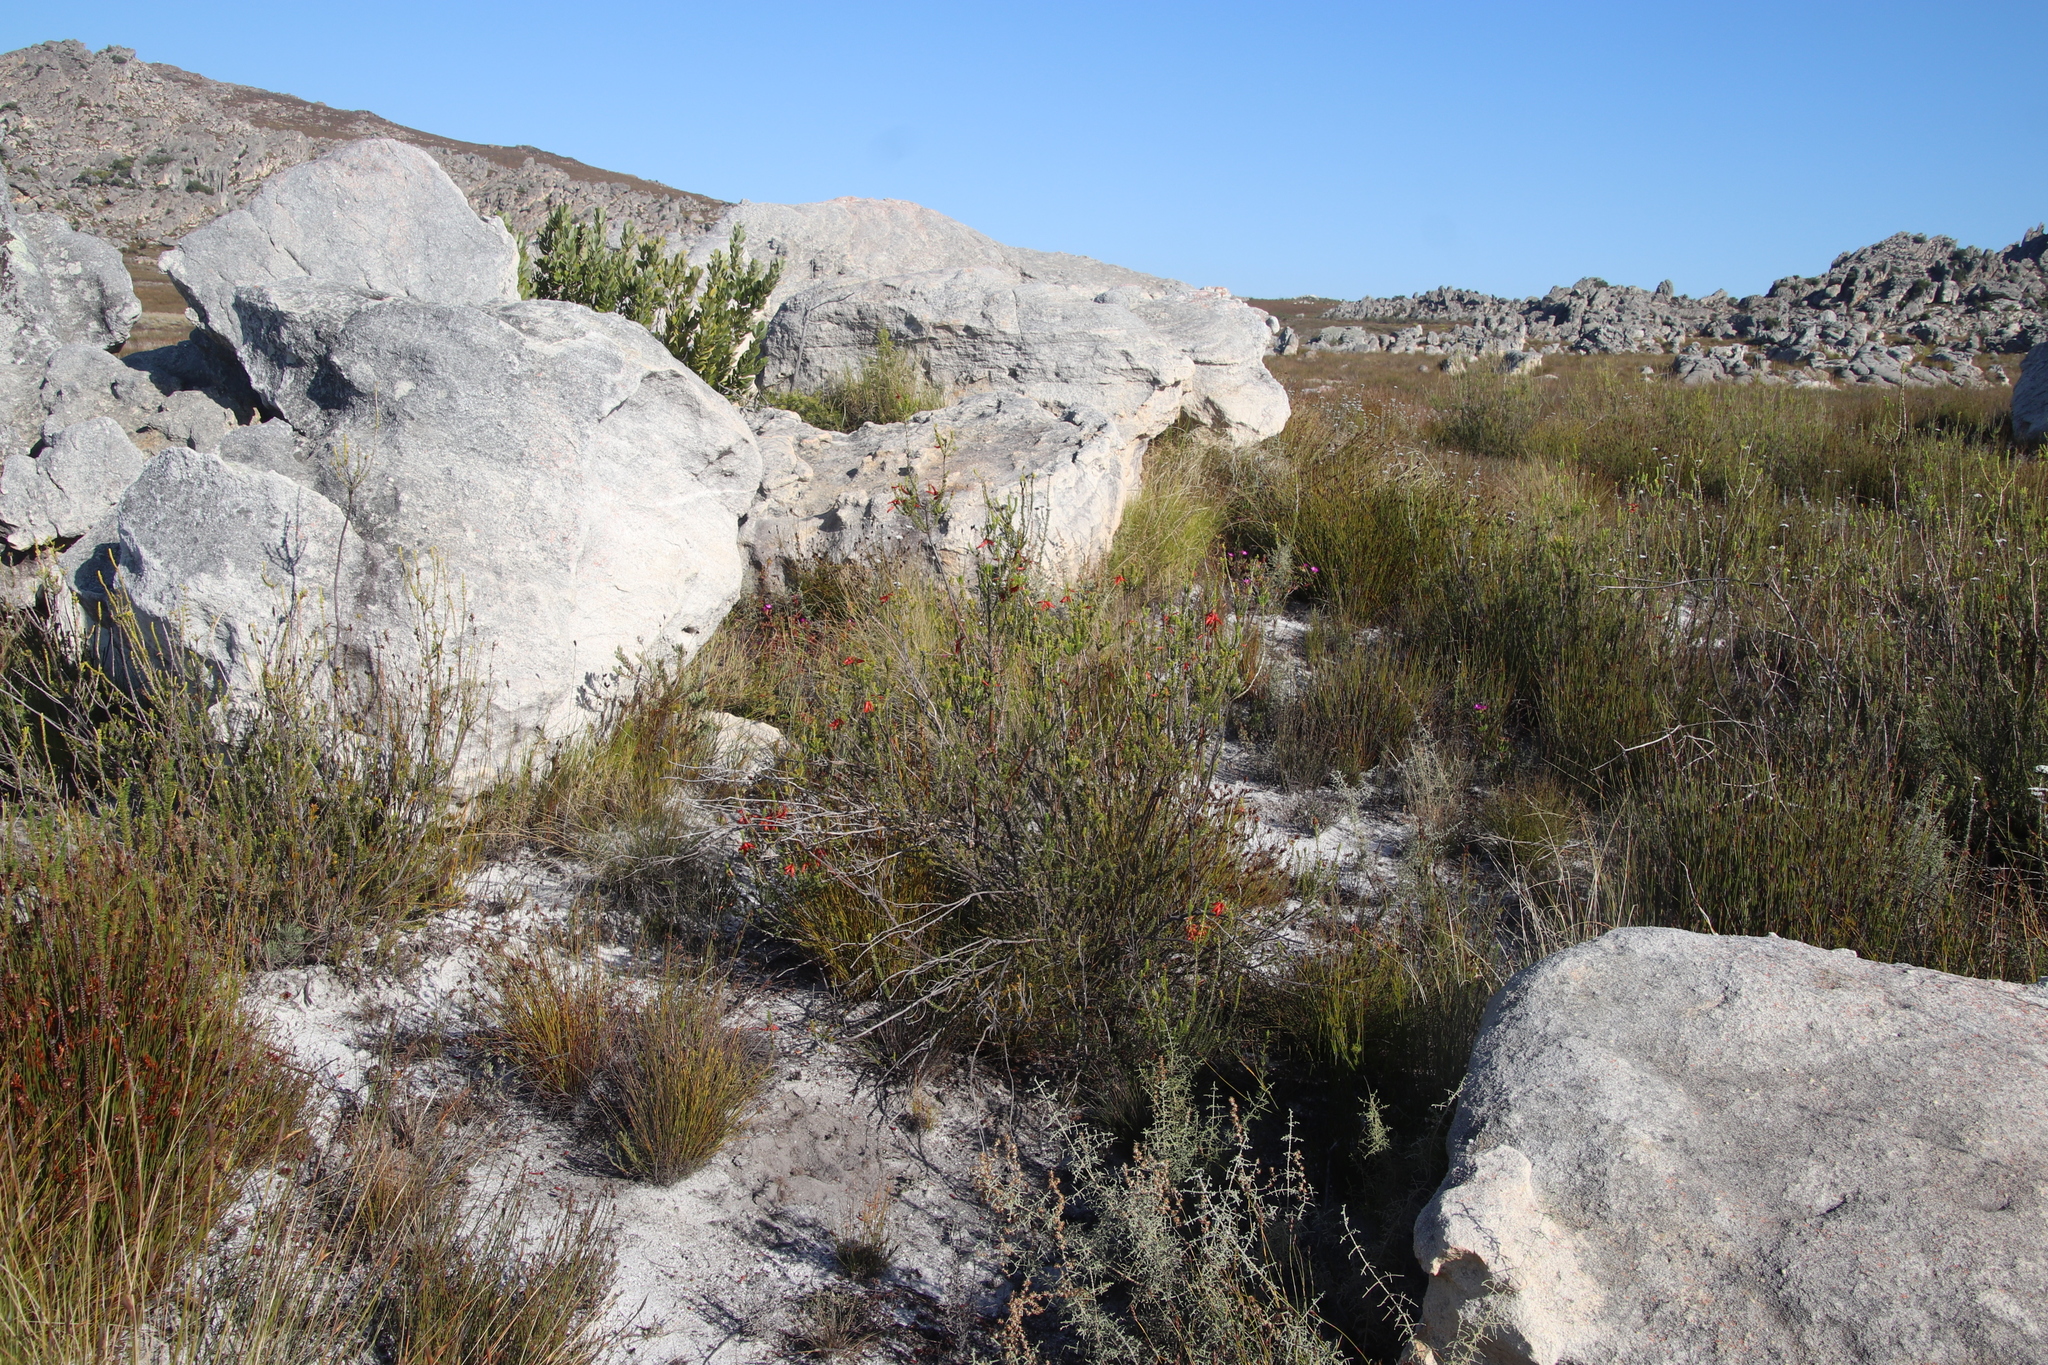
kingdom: Plantae
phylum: Tracheophyta
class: Magnoliopsida
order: Ericales
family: Ericaceae
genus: Erica
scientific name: Erica mammosa
